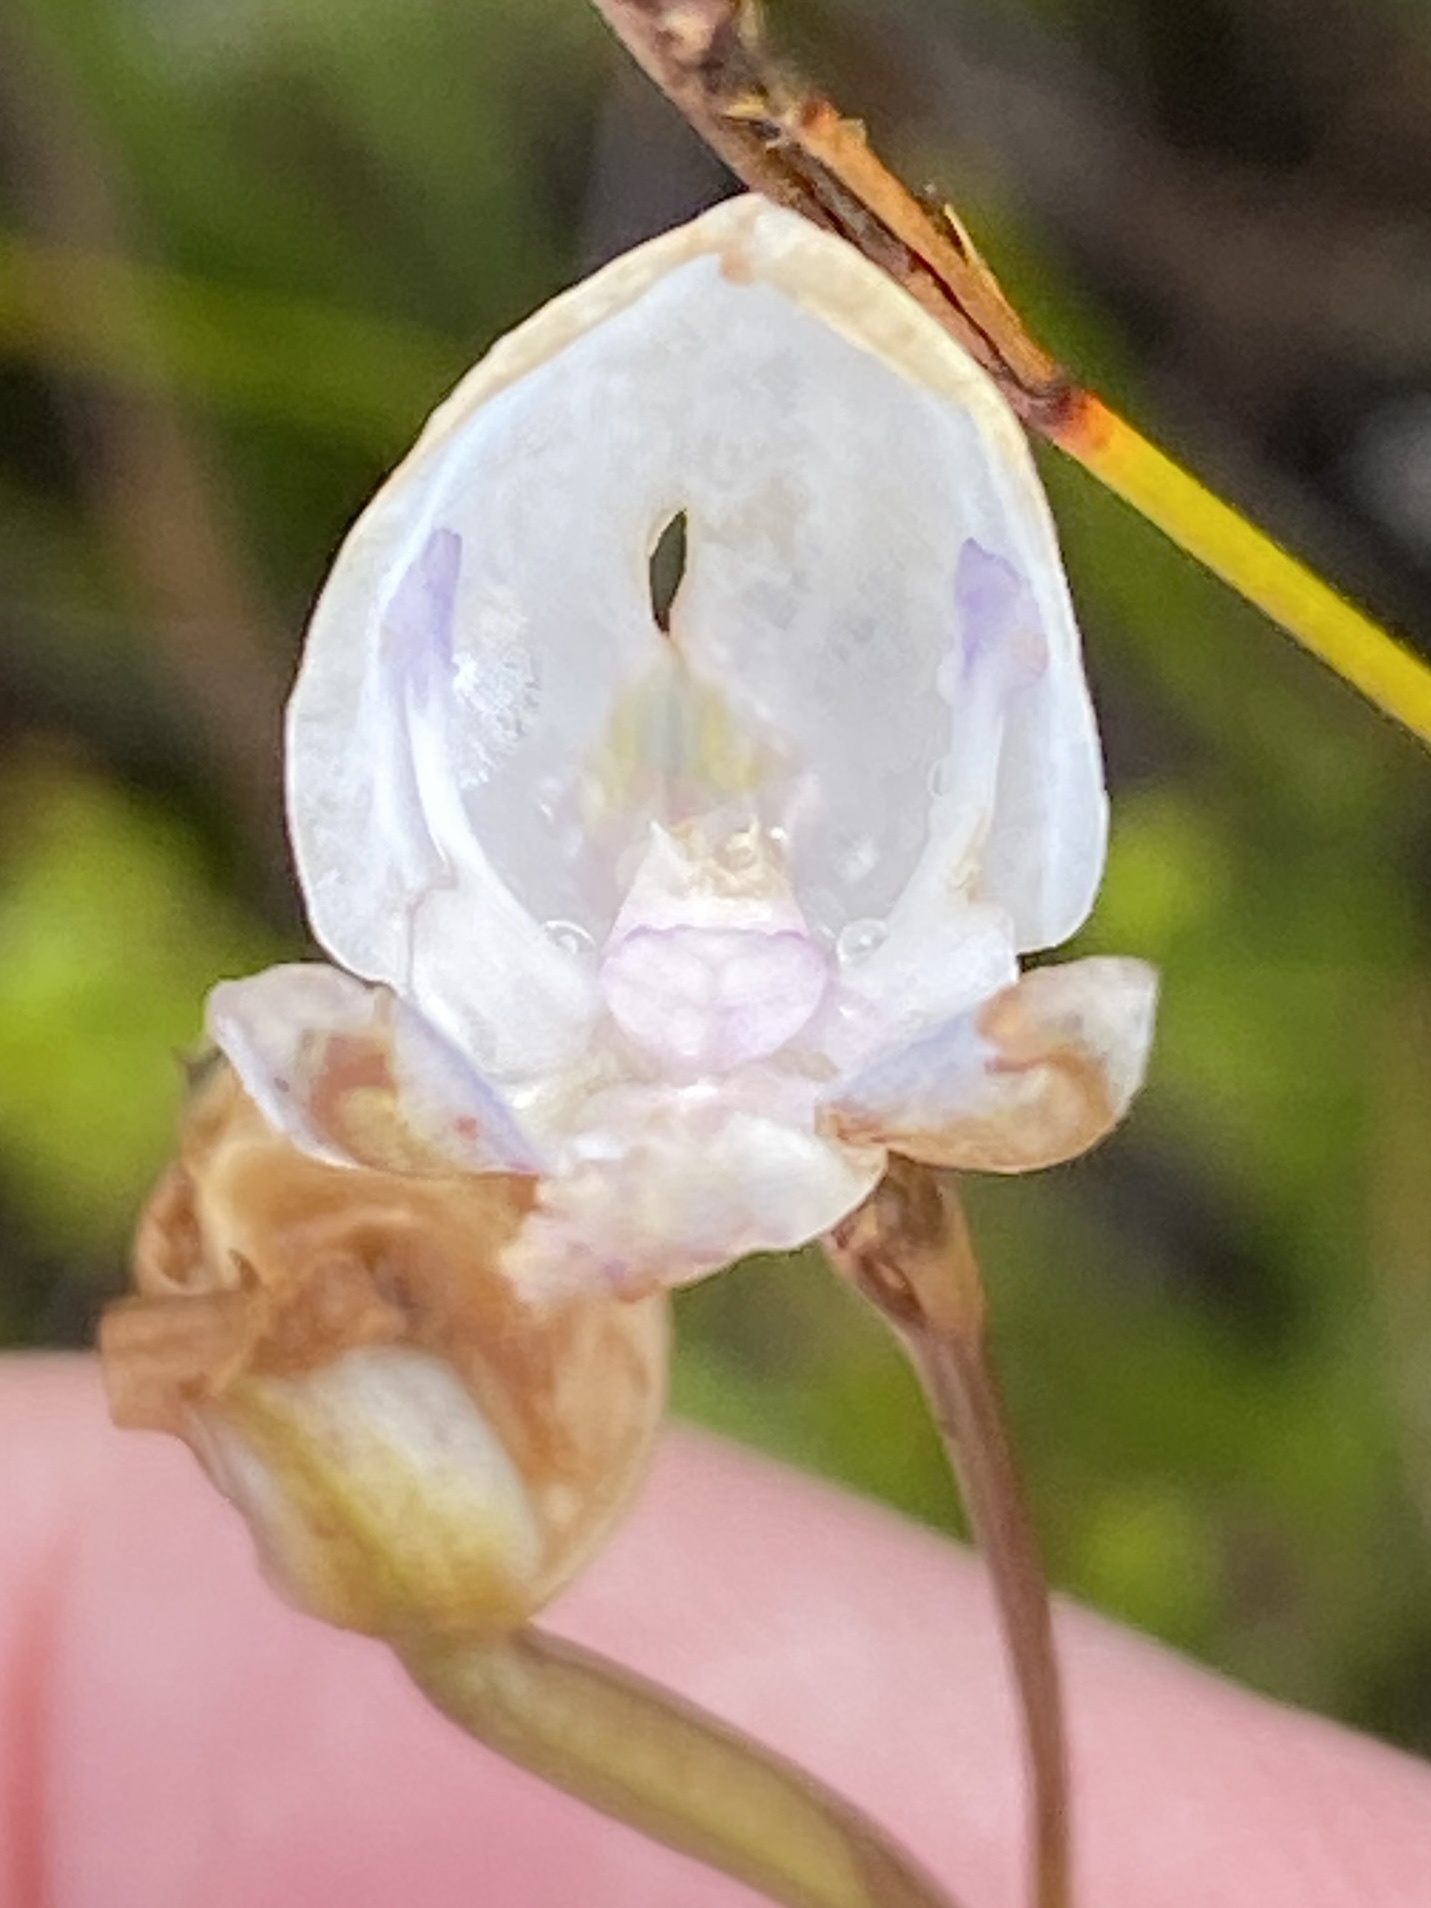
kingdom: Plantae
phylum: Tracheophyta
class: Liliopsida
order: Asparagales
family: Orchidaceae
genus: Disa
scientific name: Disa hians
